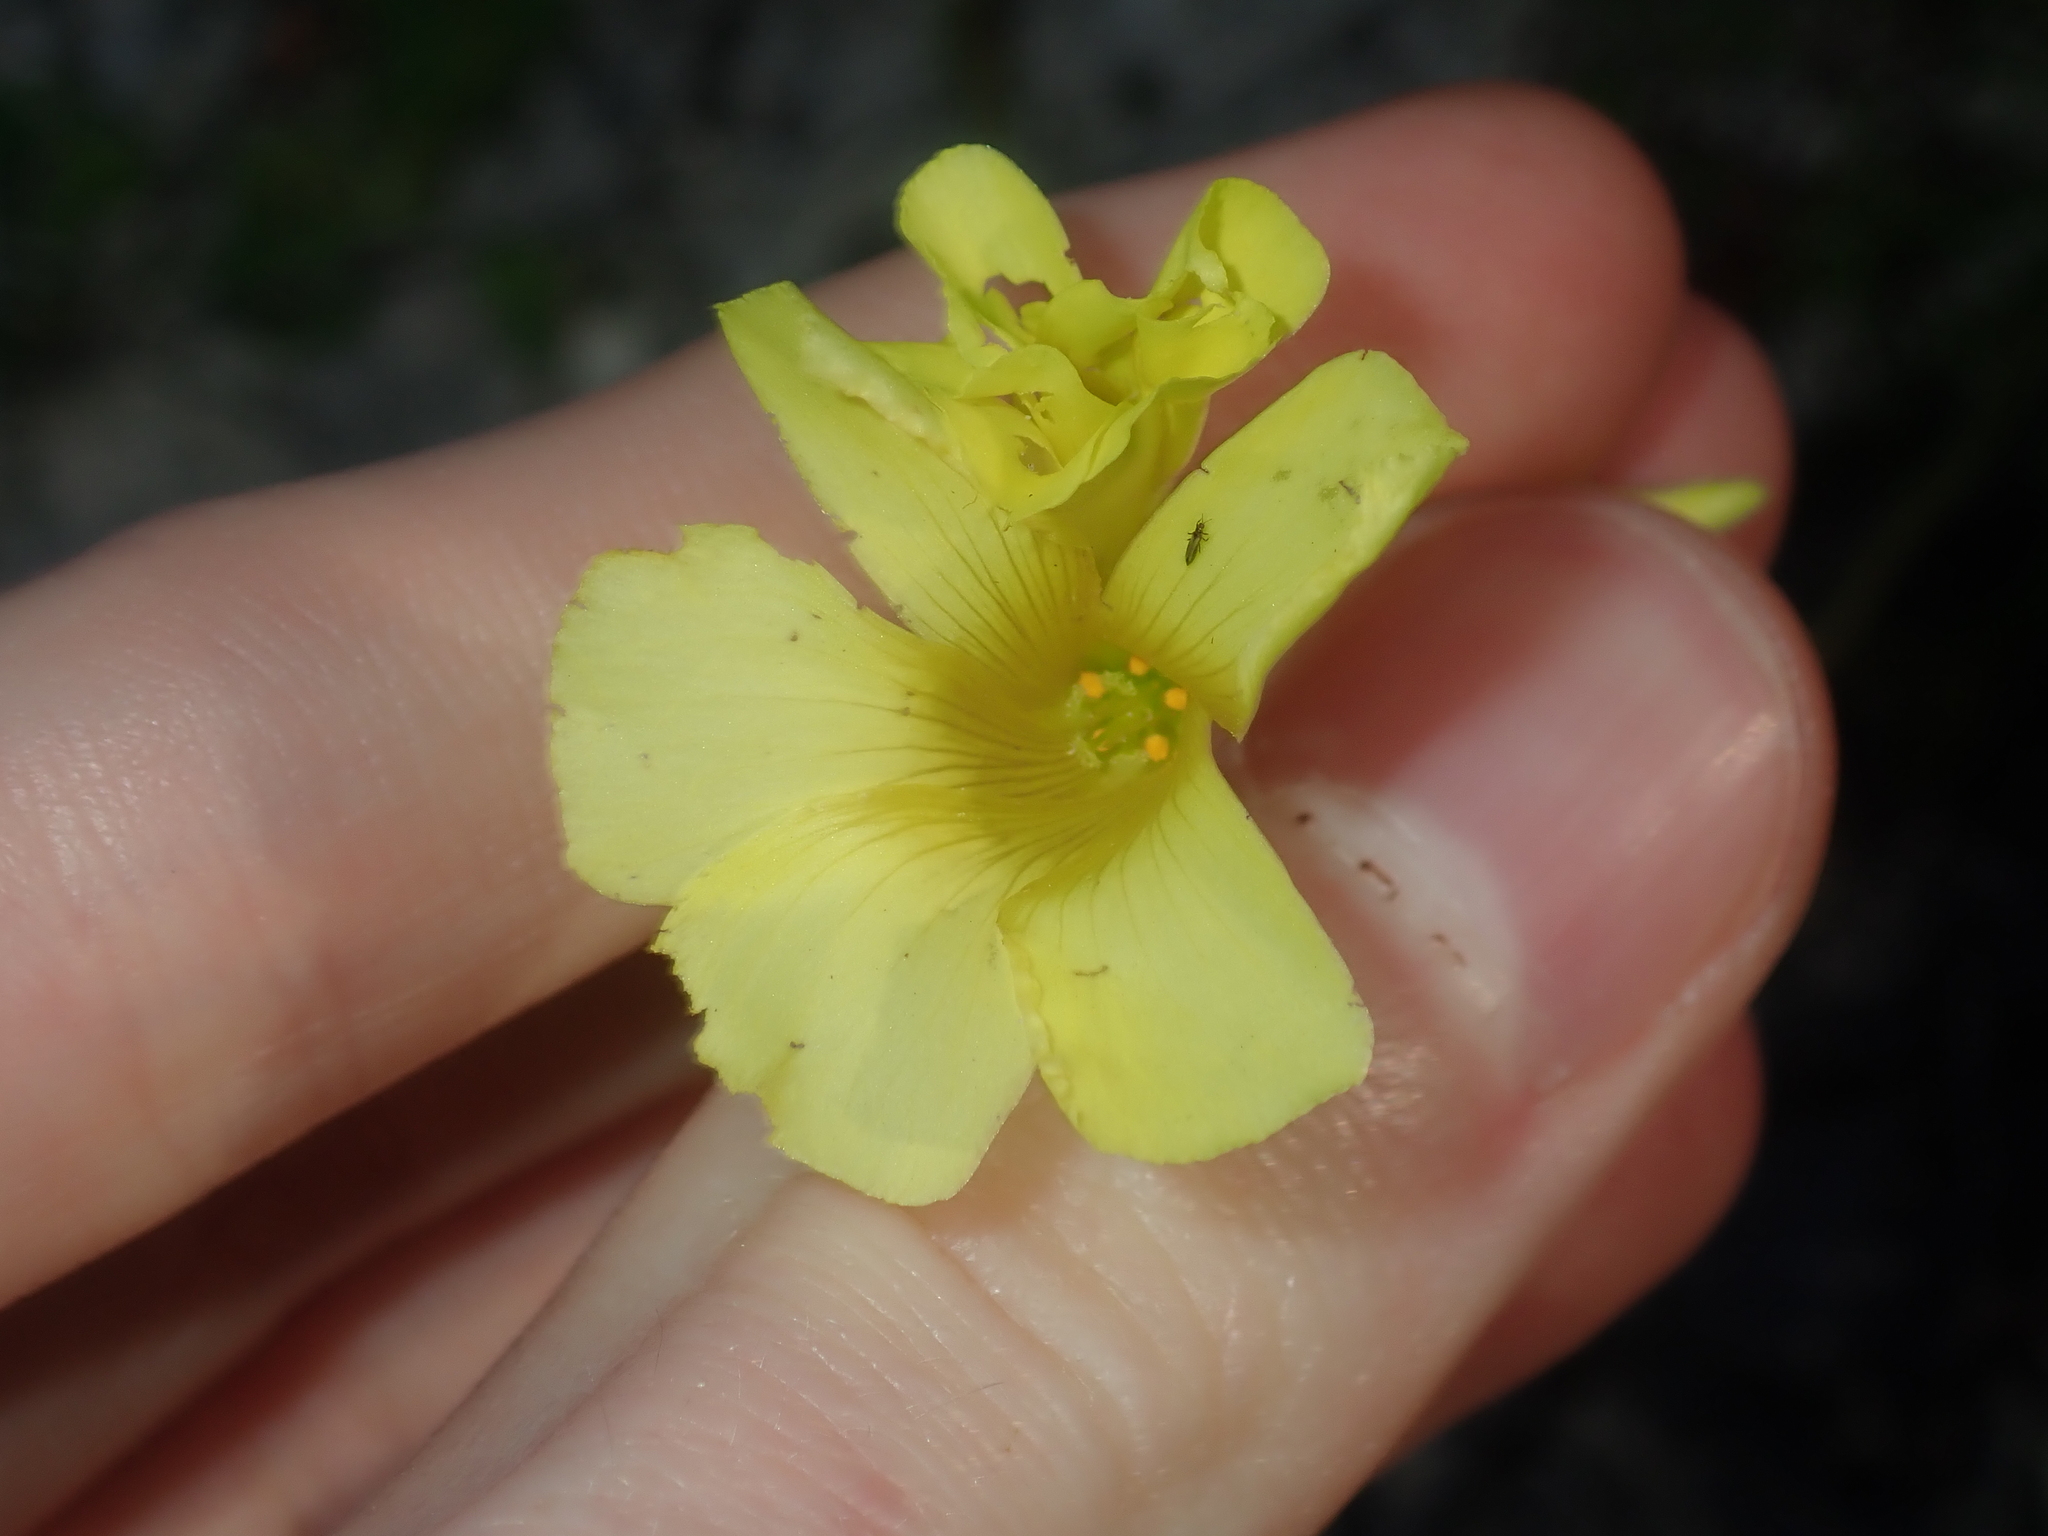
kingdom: Plantae
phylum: Tracheophyta
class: Magnoliopsida
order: Oxalidales
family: Oxalidaceae
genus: Oxalis
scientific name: Oxalis pes-caprae
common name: Bermuda-buttercup
